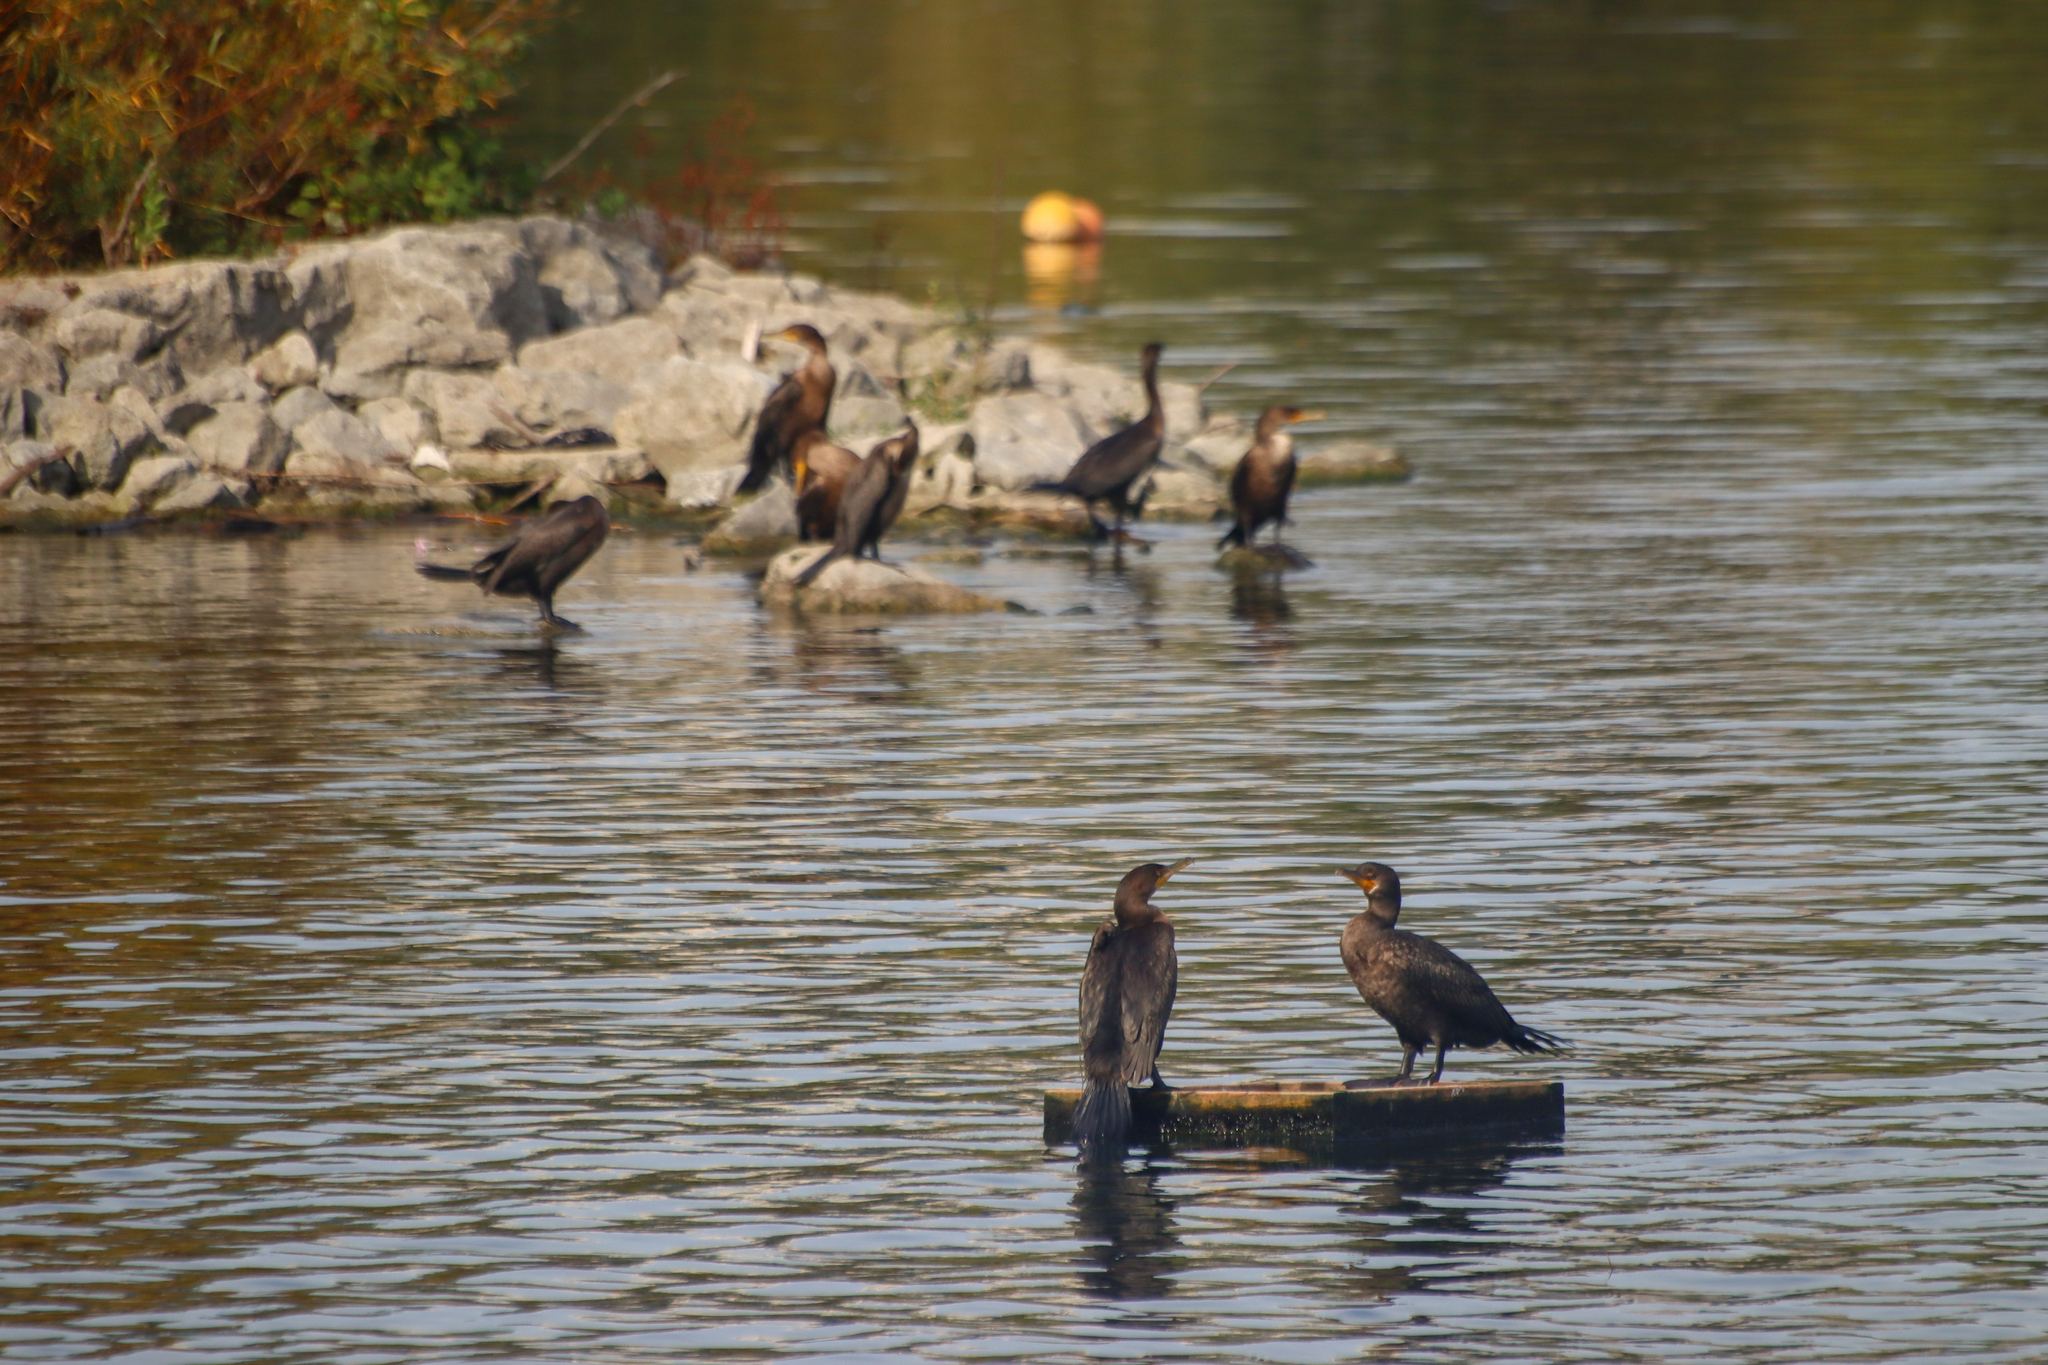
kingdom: Animalia
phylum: Chordata
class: Aves
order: Suliformes
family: Phalacrocoracidae
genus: Phalacrocorax
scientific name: Phalacrocorax auritus
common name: Double-crested cormorant
